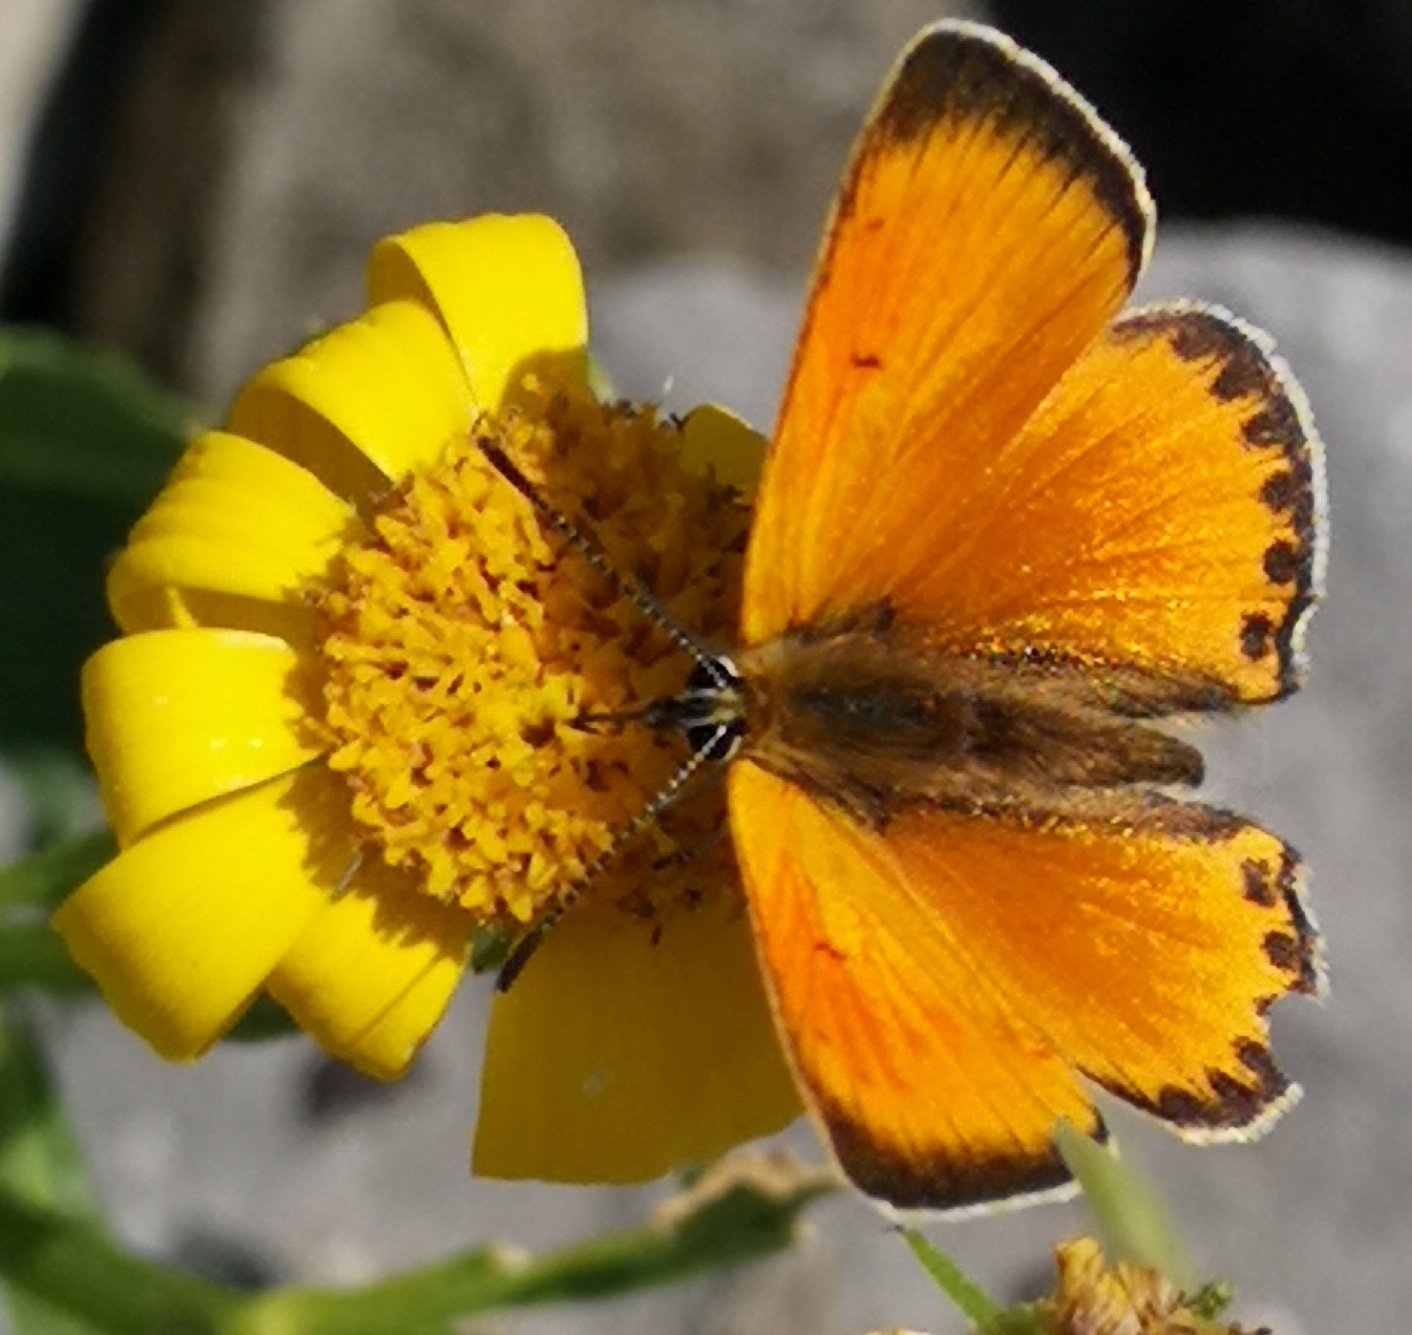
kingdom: Animalia
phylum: Arthropoda
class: Insecta
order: Lepidoptera
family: Lycaenidae
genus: Lycaena
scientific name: Lycaena virgaureae
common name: Scarce copper
